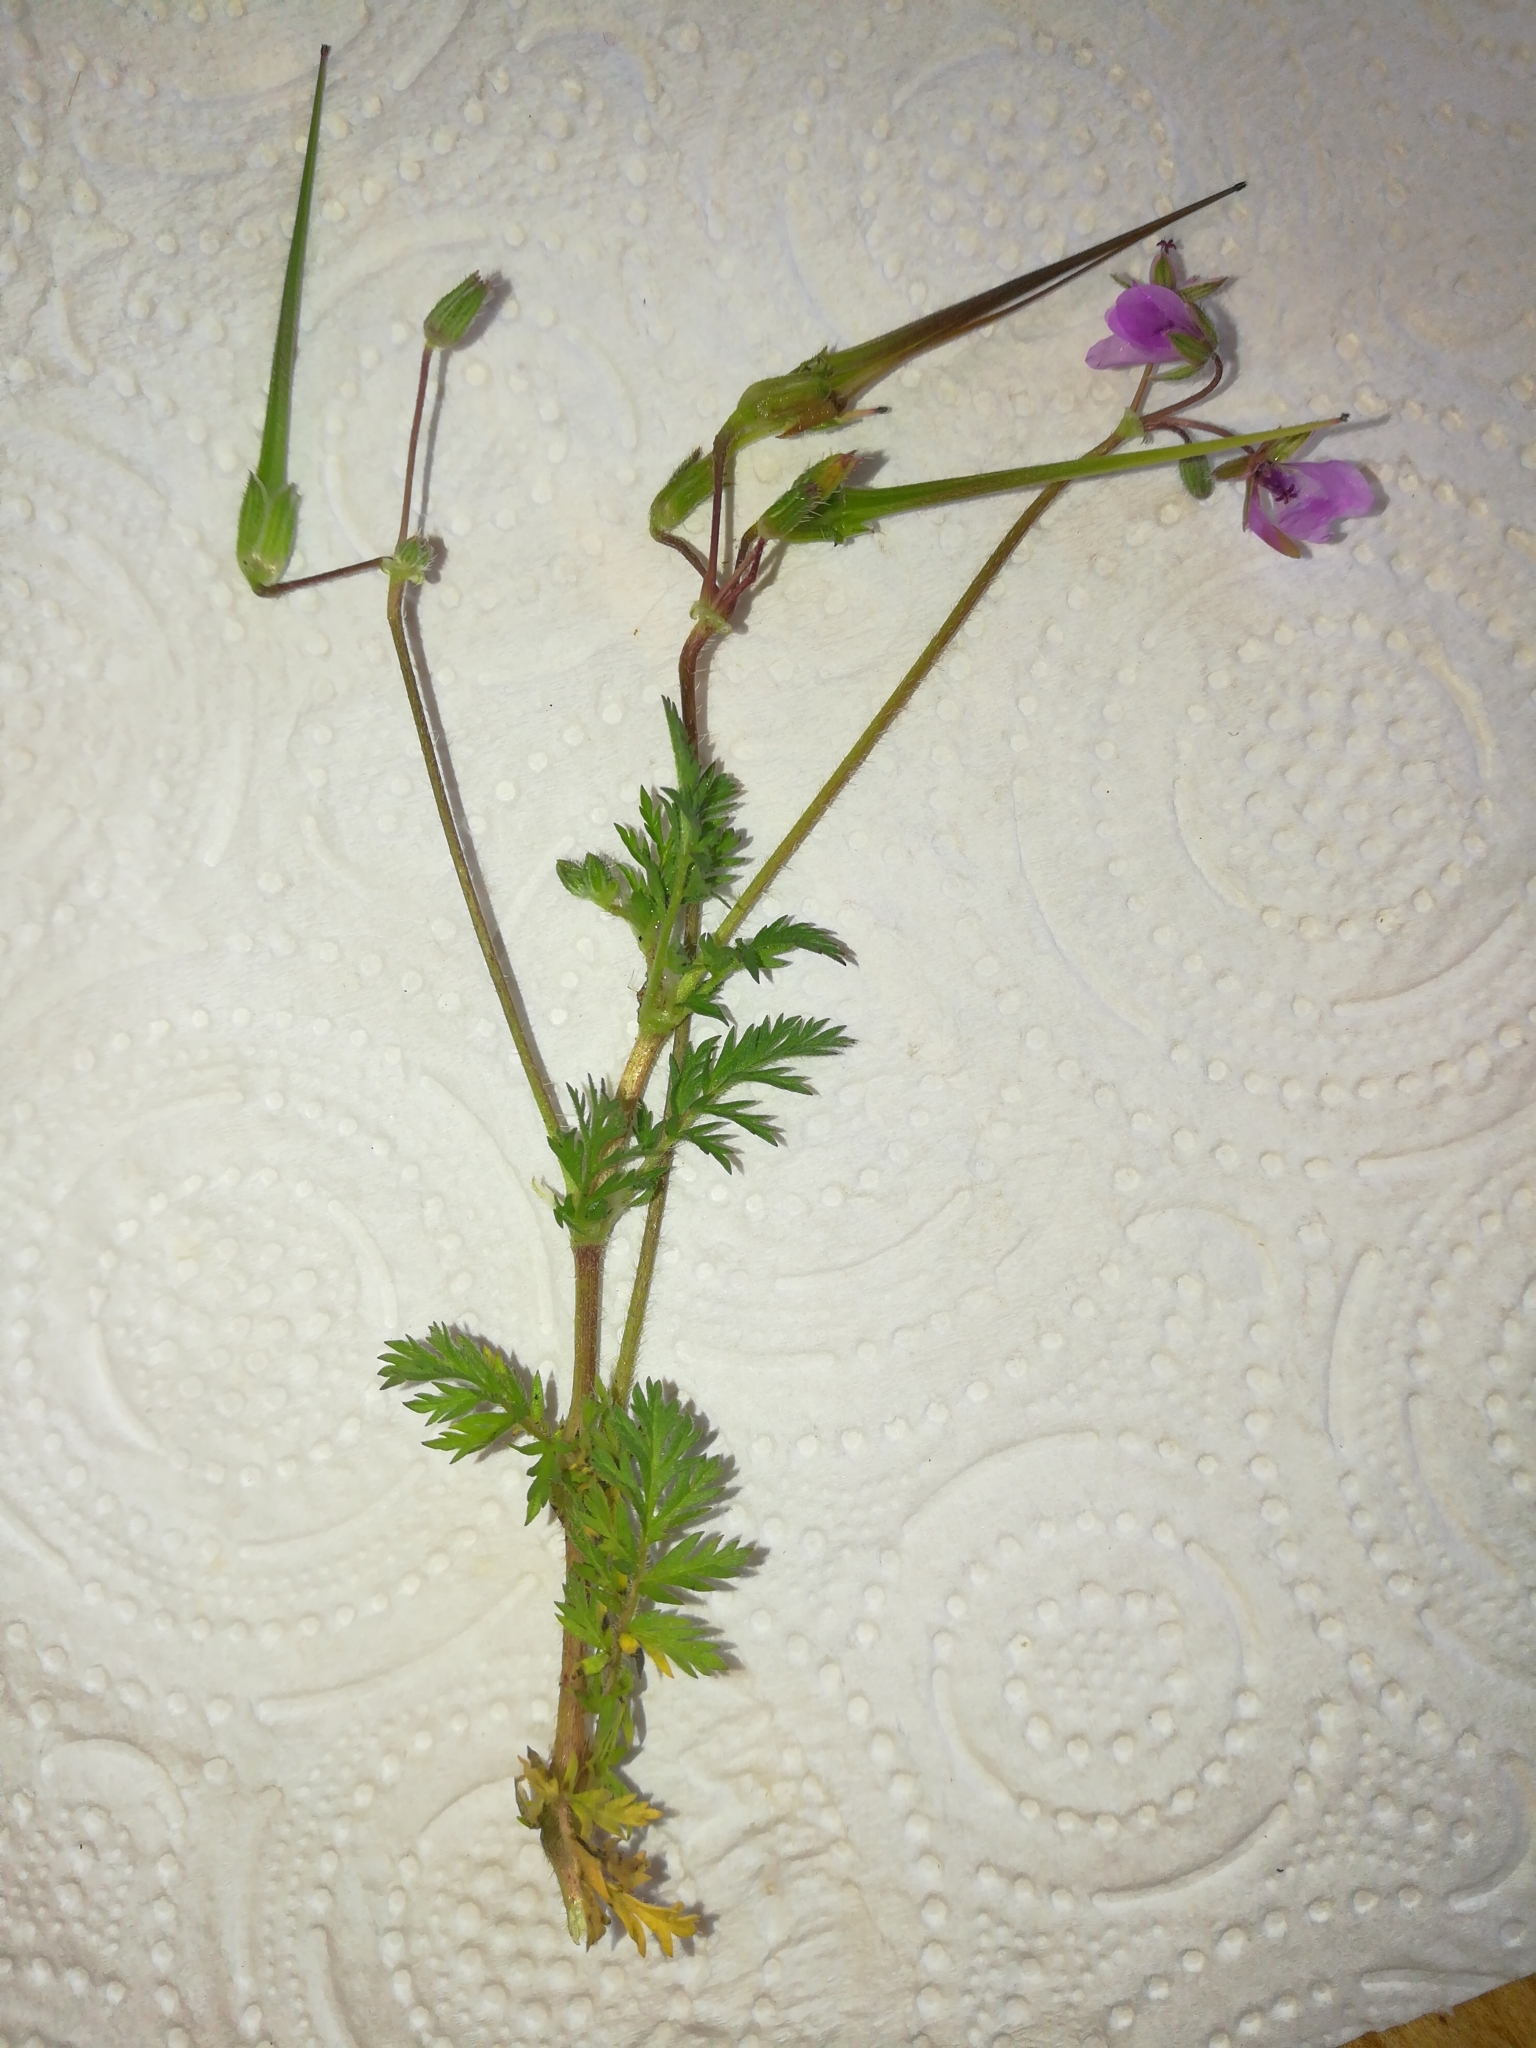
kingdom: Plantae
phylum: Tracheophyta
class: Magnoliopsida
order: Geraniales
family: Geraniaceae
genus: Erodium
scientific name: Erodium cicutarium
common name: Common stork's-bill
